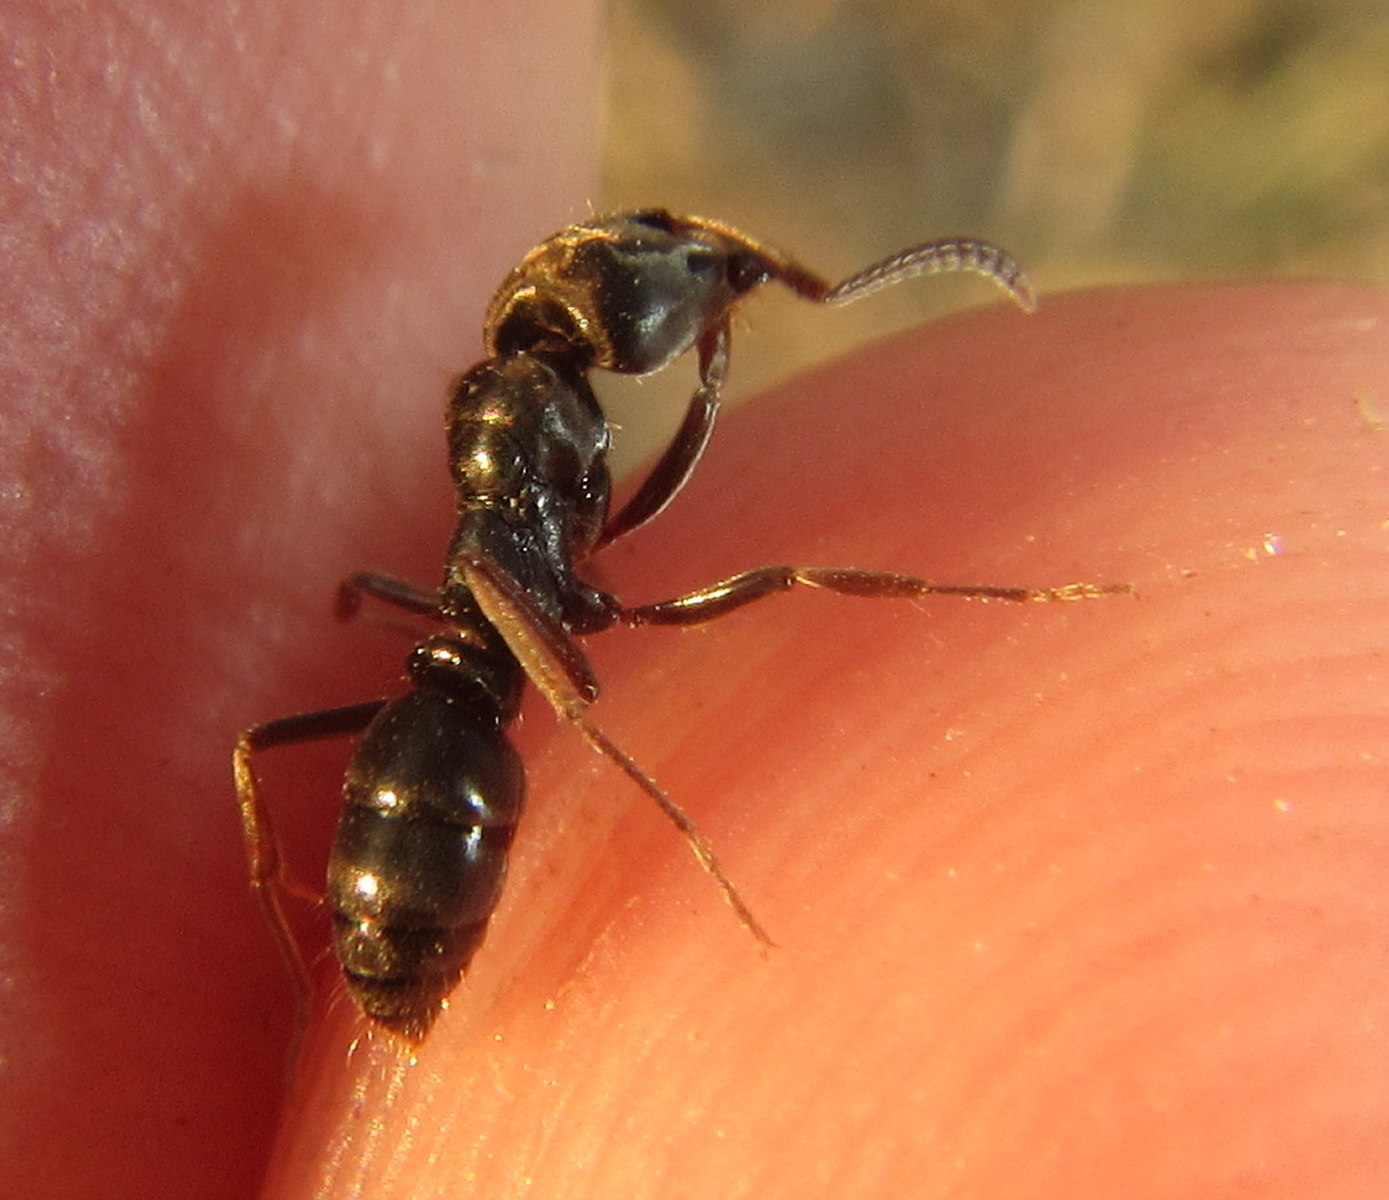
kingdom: Animalia
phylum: Arthropoda
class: Insecta
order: Hymenoptera
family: Formicidae
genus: Pachycondyla
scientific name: Pachycondyla sennaarensis
